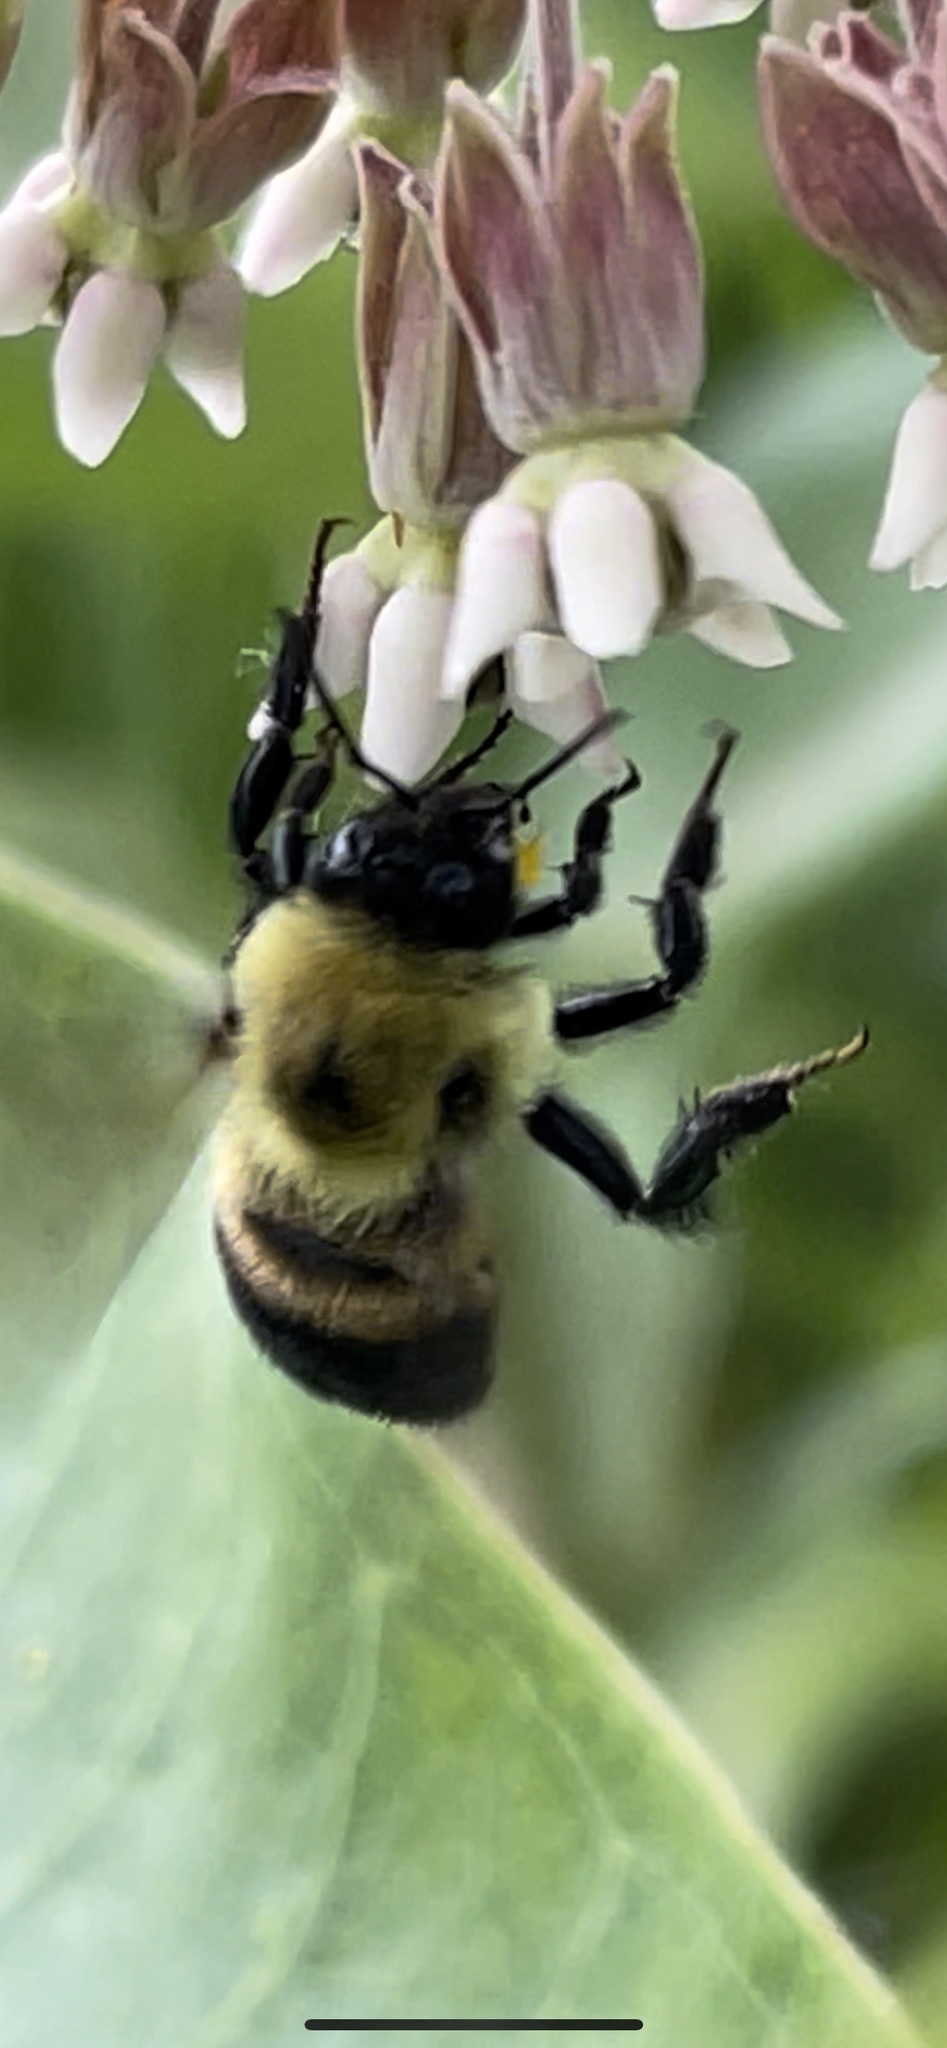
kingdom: Animalia
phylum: Arthropoda
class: Insecta
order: Hymenoptera
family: Apidae
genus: Bombus
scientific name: Bombus griseocollis
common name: Brown-belted bumble bee
